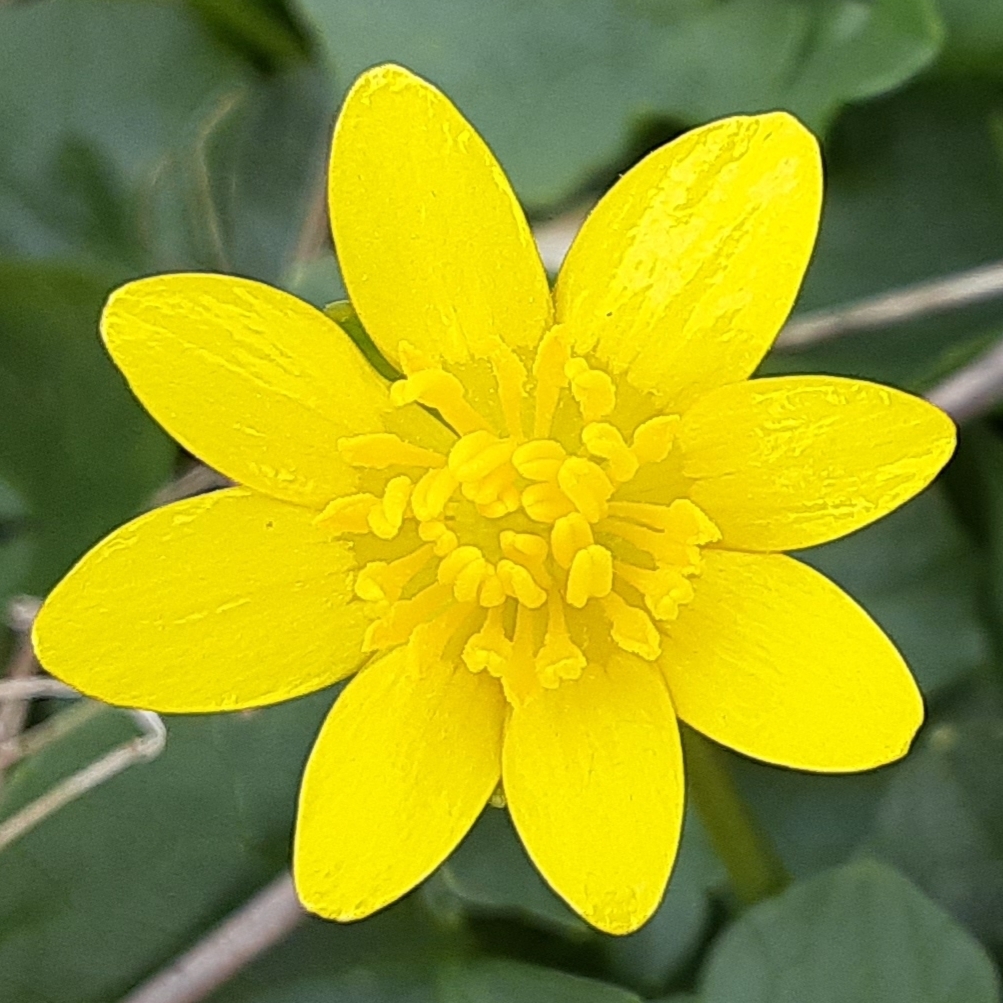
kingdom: Plantae
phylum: Tracheophyta
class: Magnoliopsida
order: Ranunculales
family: Ranunculaceae
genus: Ficaria
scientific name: Ficaria verna
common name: Lesser celandine
